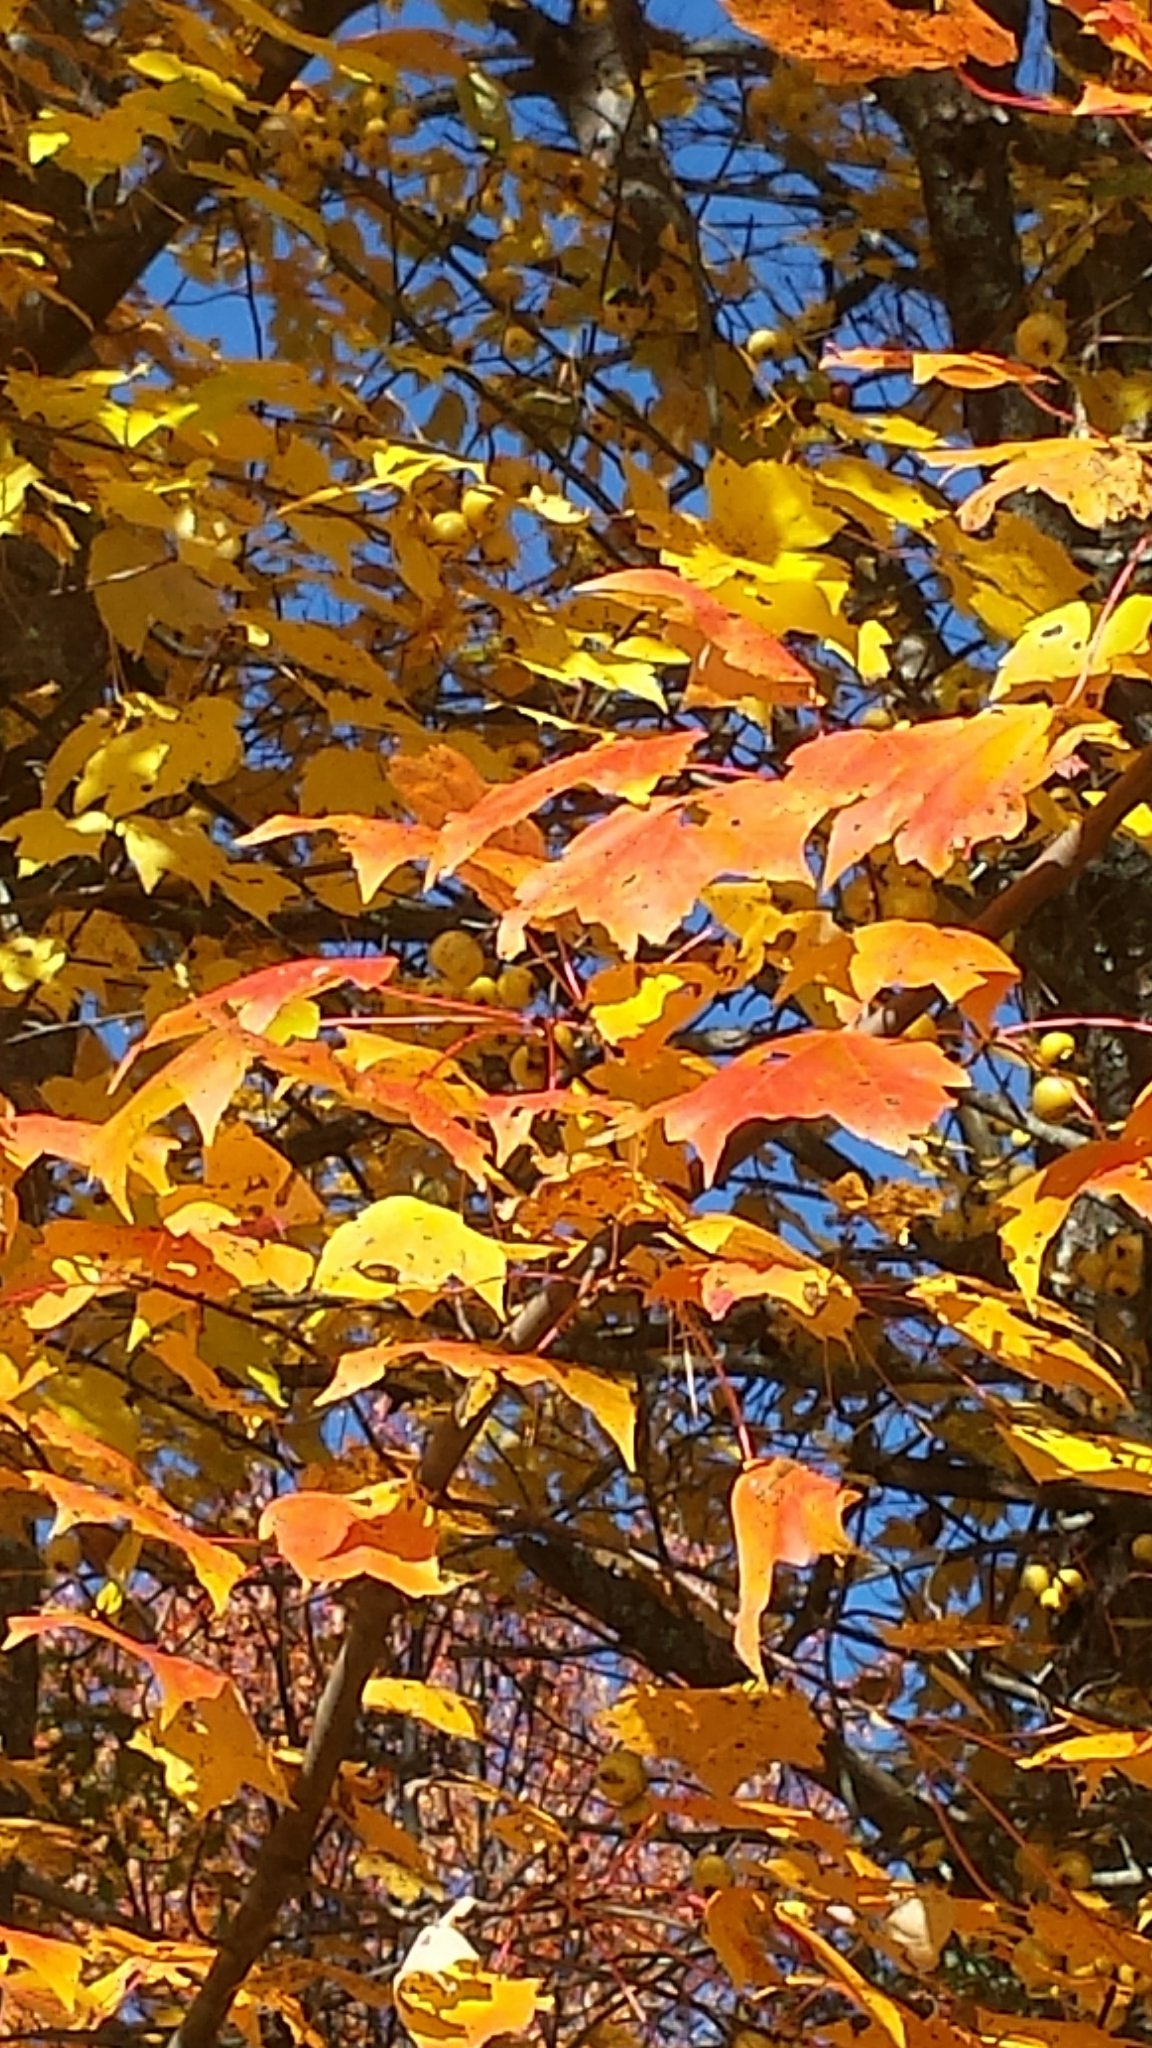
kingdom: Plantae
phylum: Tracheophyta
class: Magnoliopsida
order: Sapindales
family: Sapindaceae
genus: Acer
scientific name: Acer rubrum
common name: Red maple
